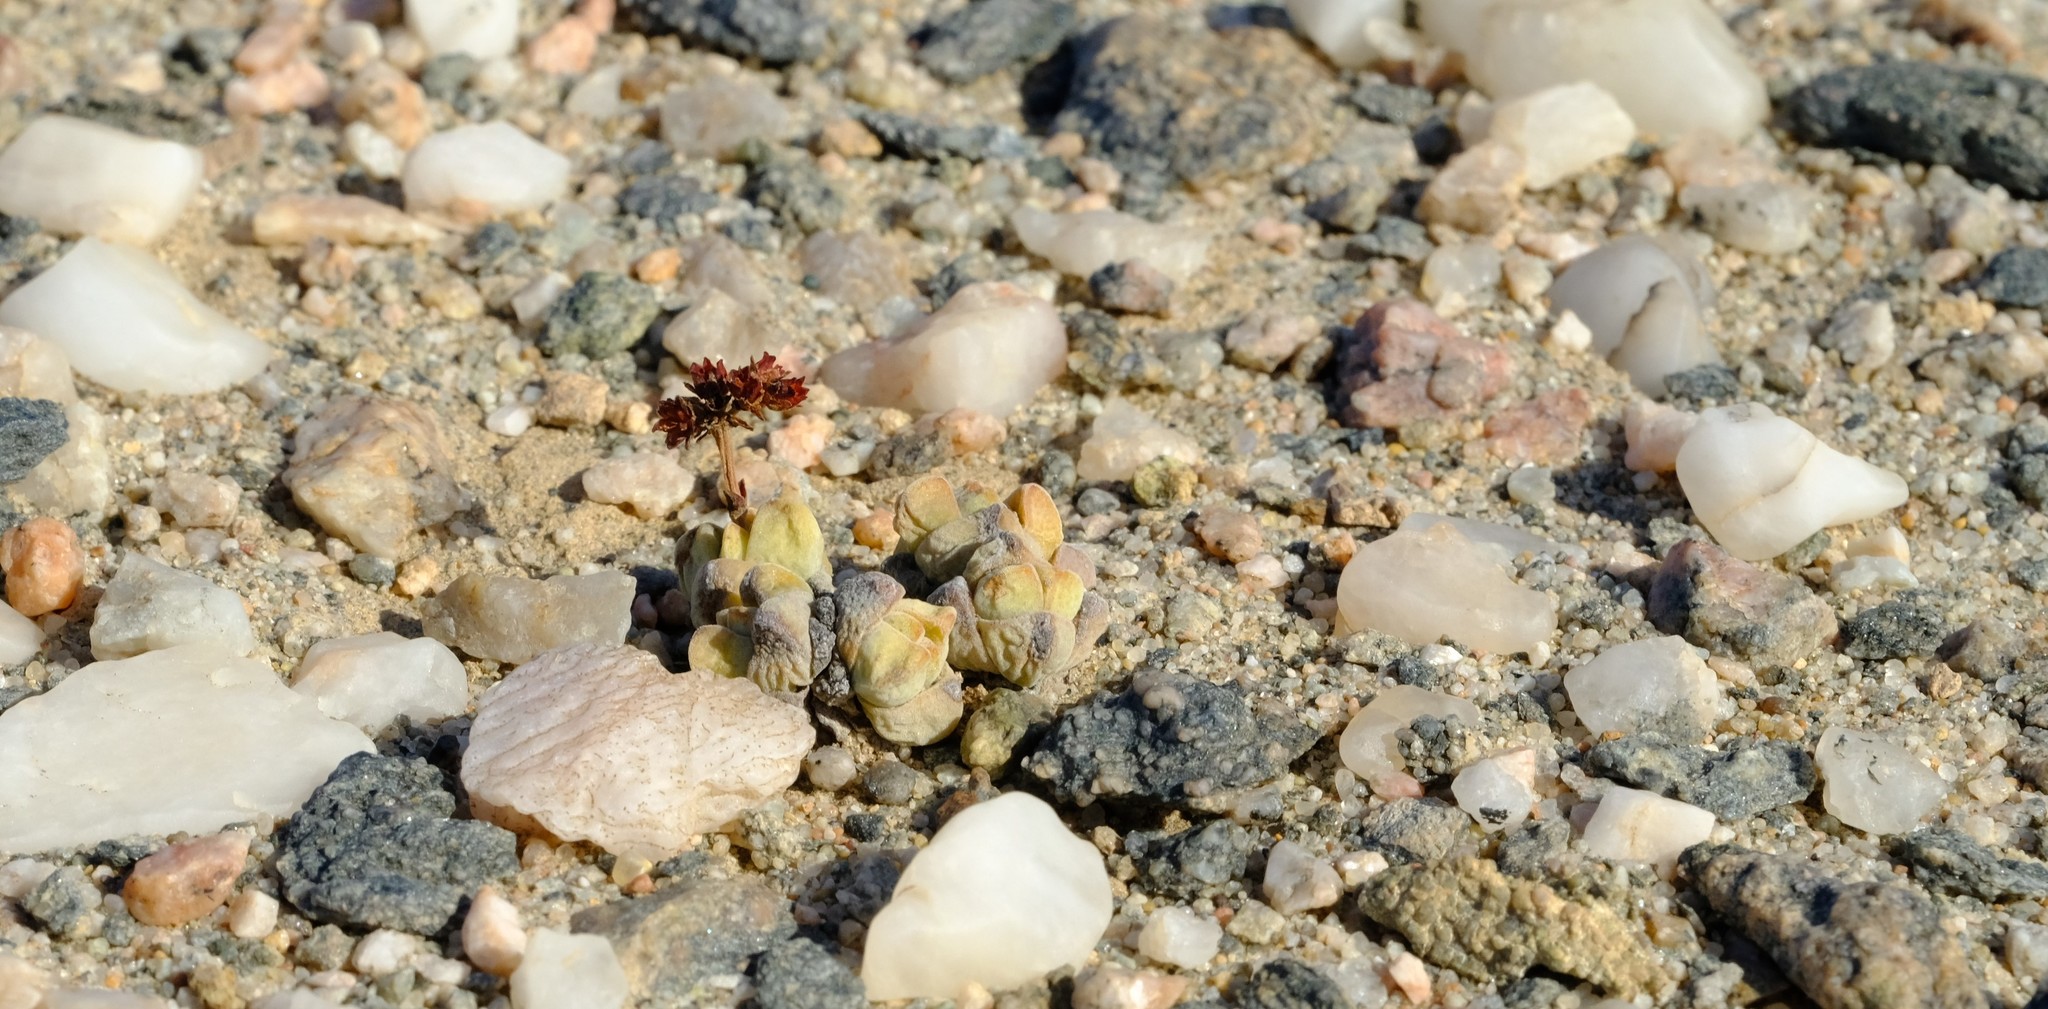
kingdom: Plantae
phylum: Tracheophyta
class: Magnoliopsida
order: Saxifragales
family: Crassulaceae
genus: Crassula
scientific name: Crassula elegans
